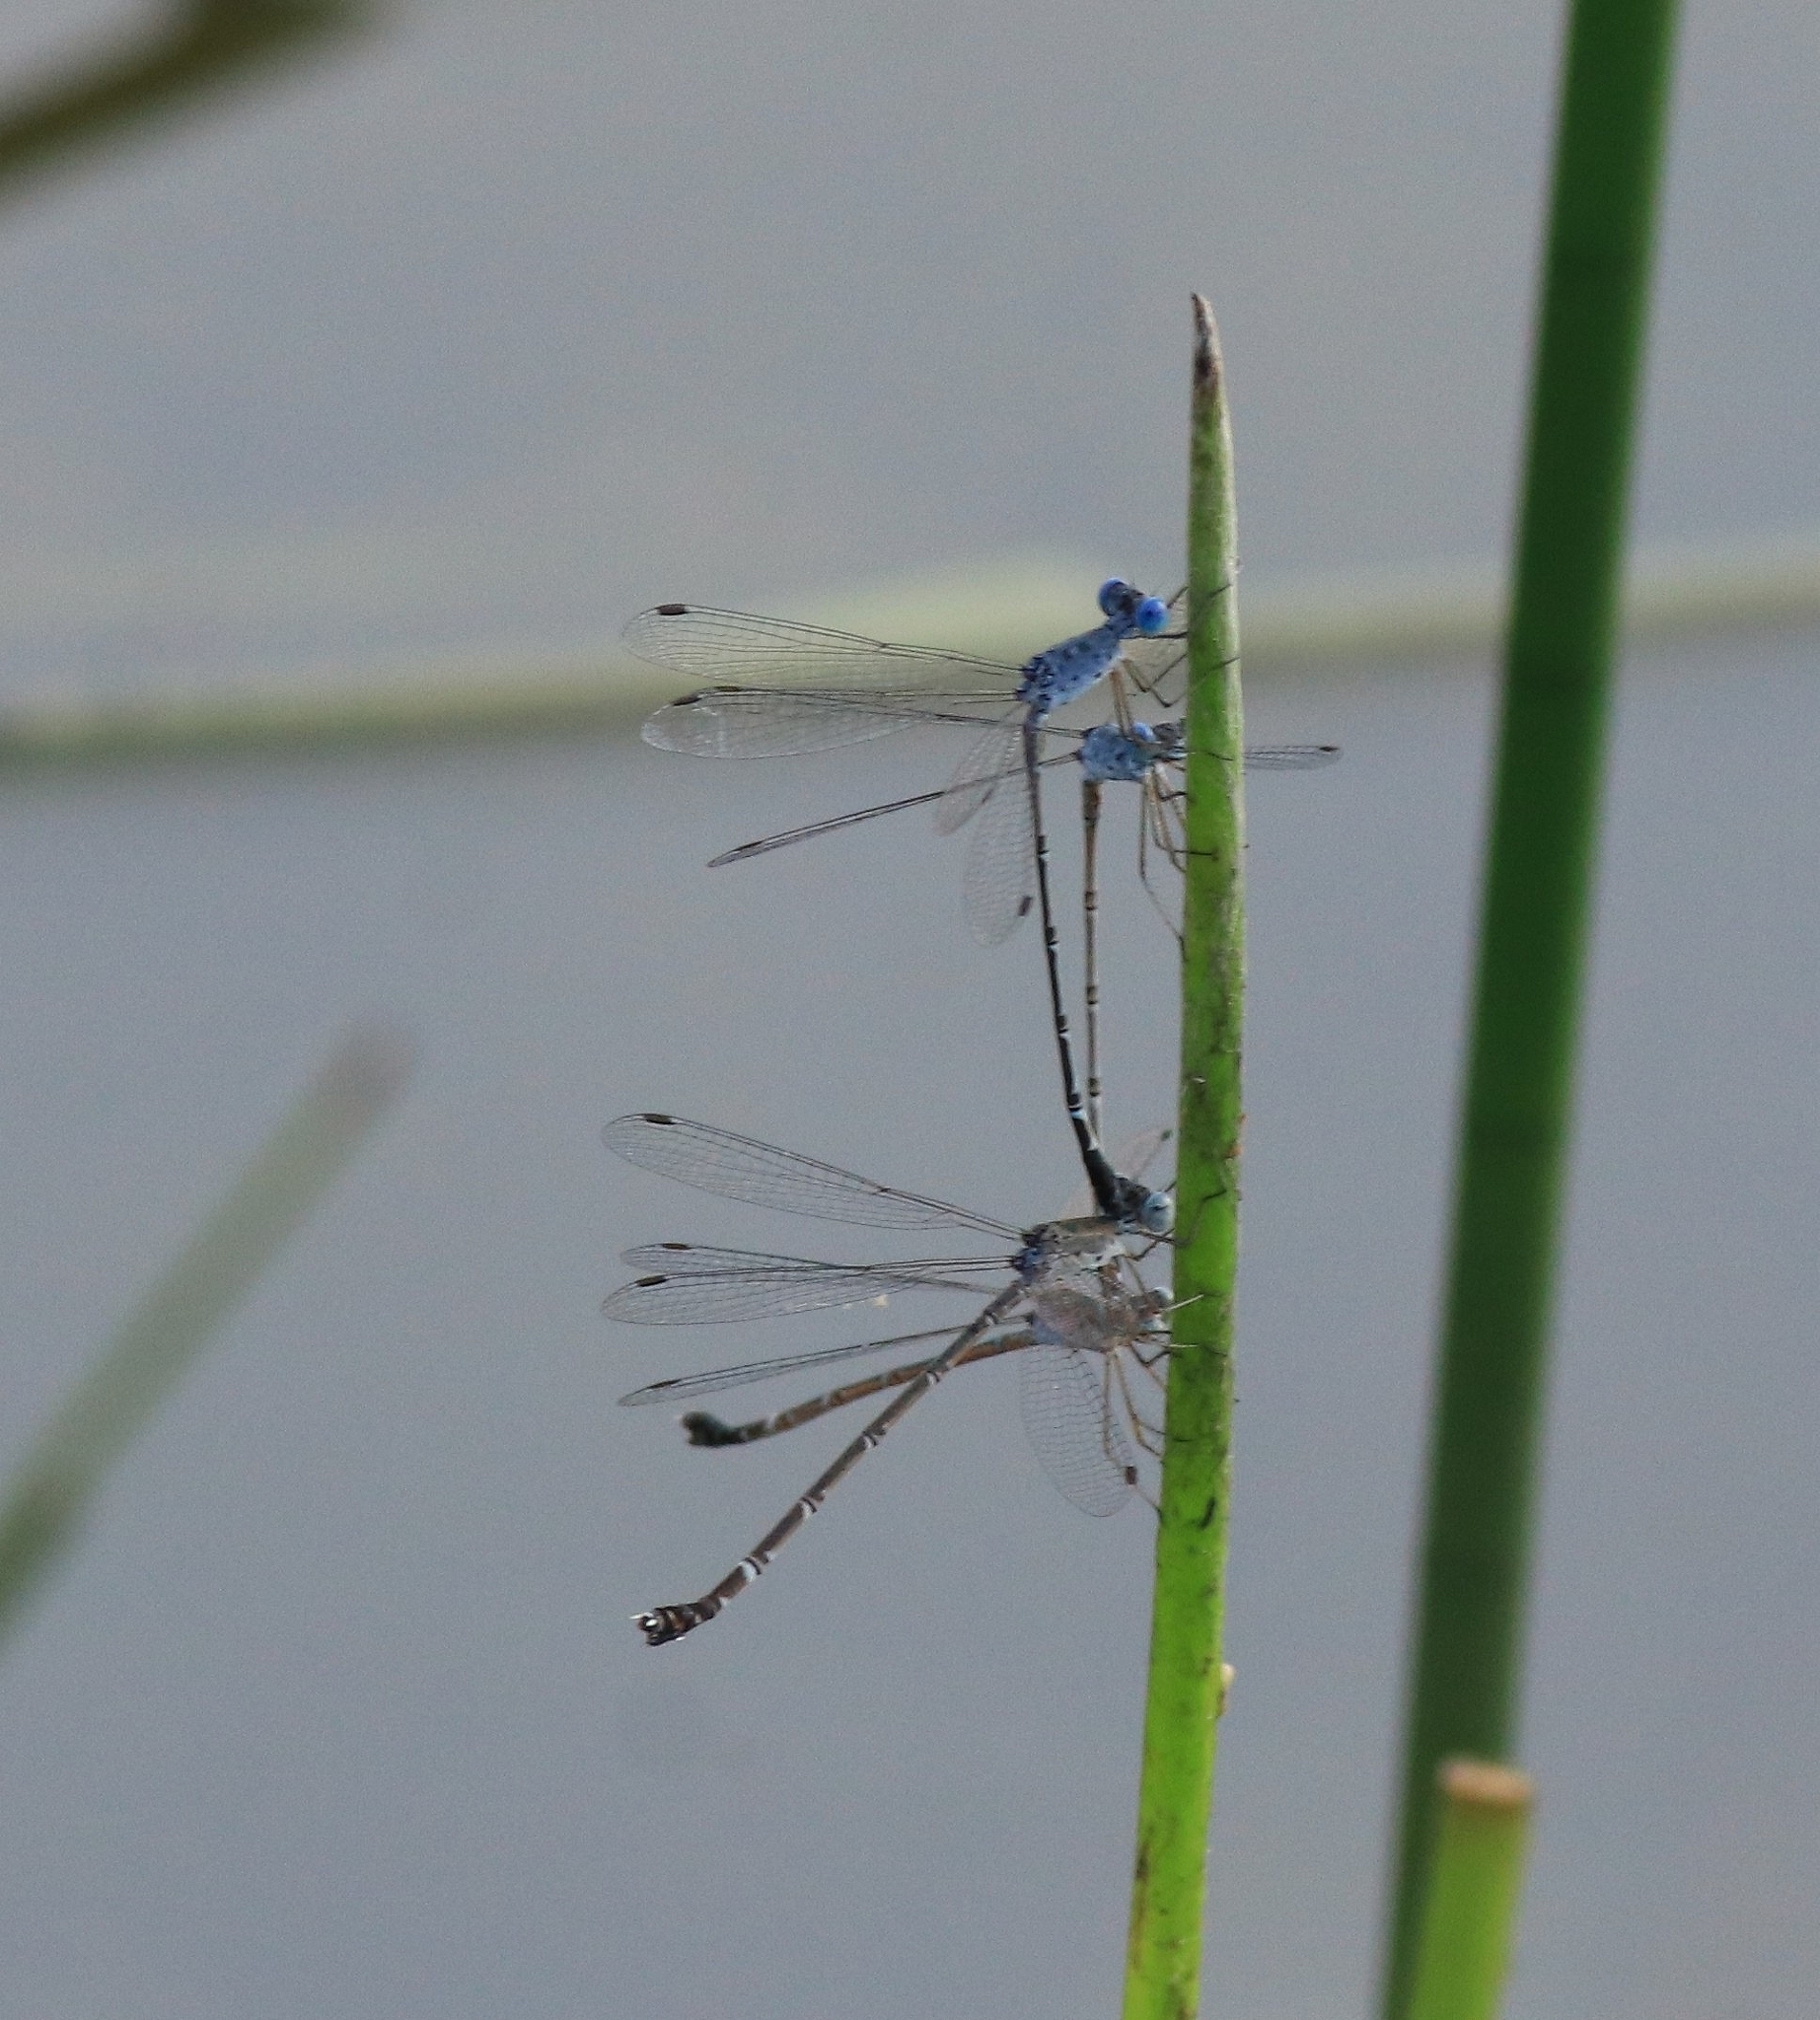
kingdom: Animalia
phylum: Arthropoda
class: Insecta
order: Odonata
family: Lestidae
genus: Lestes
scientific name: Lestes praemorsus
